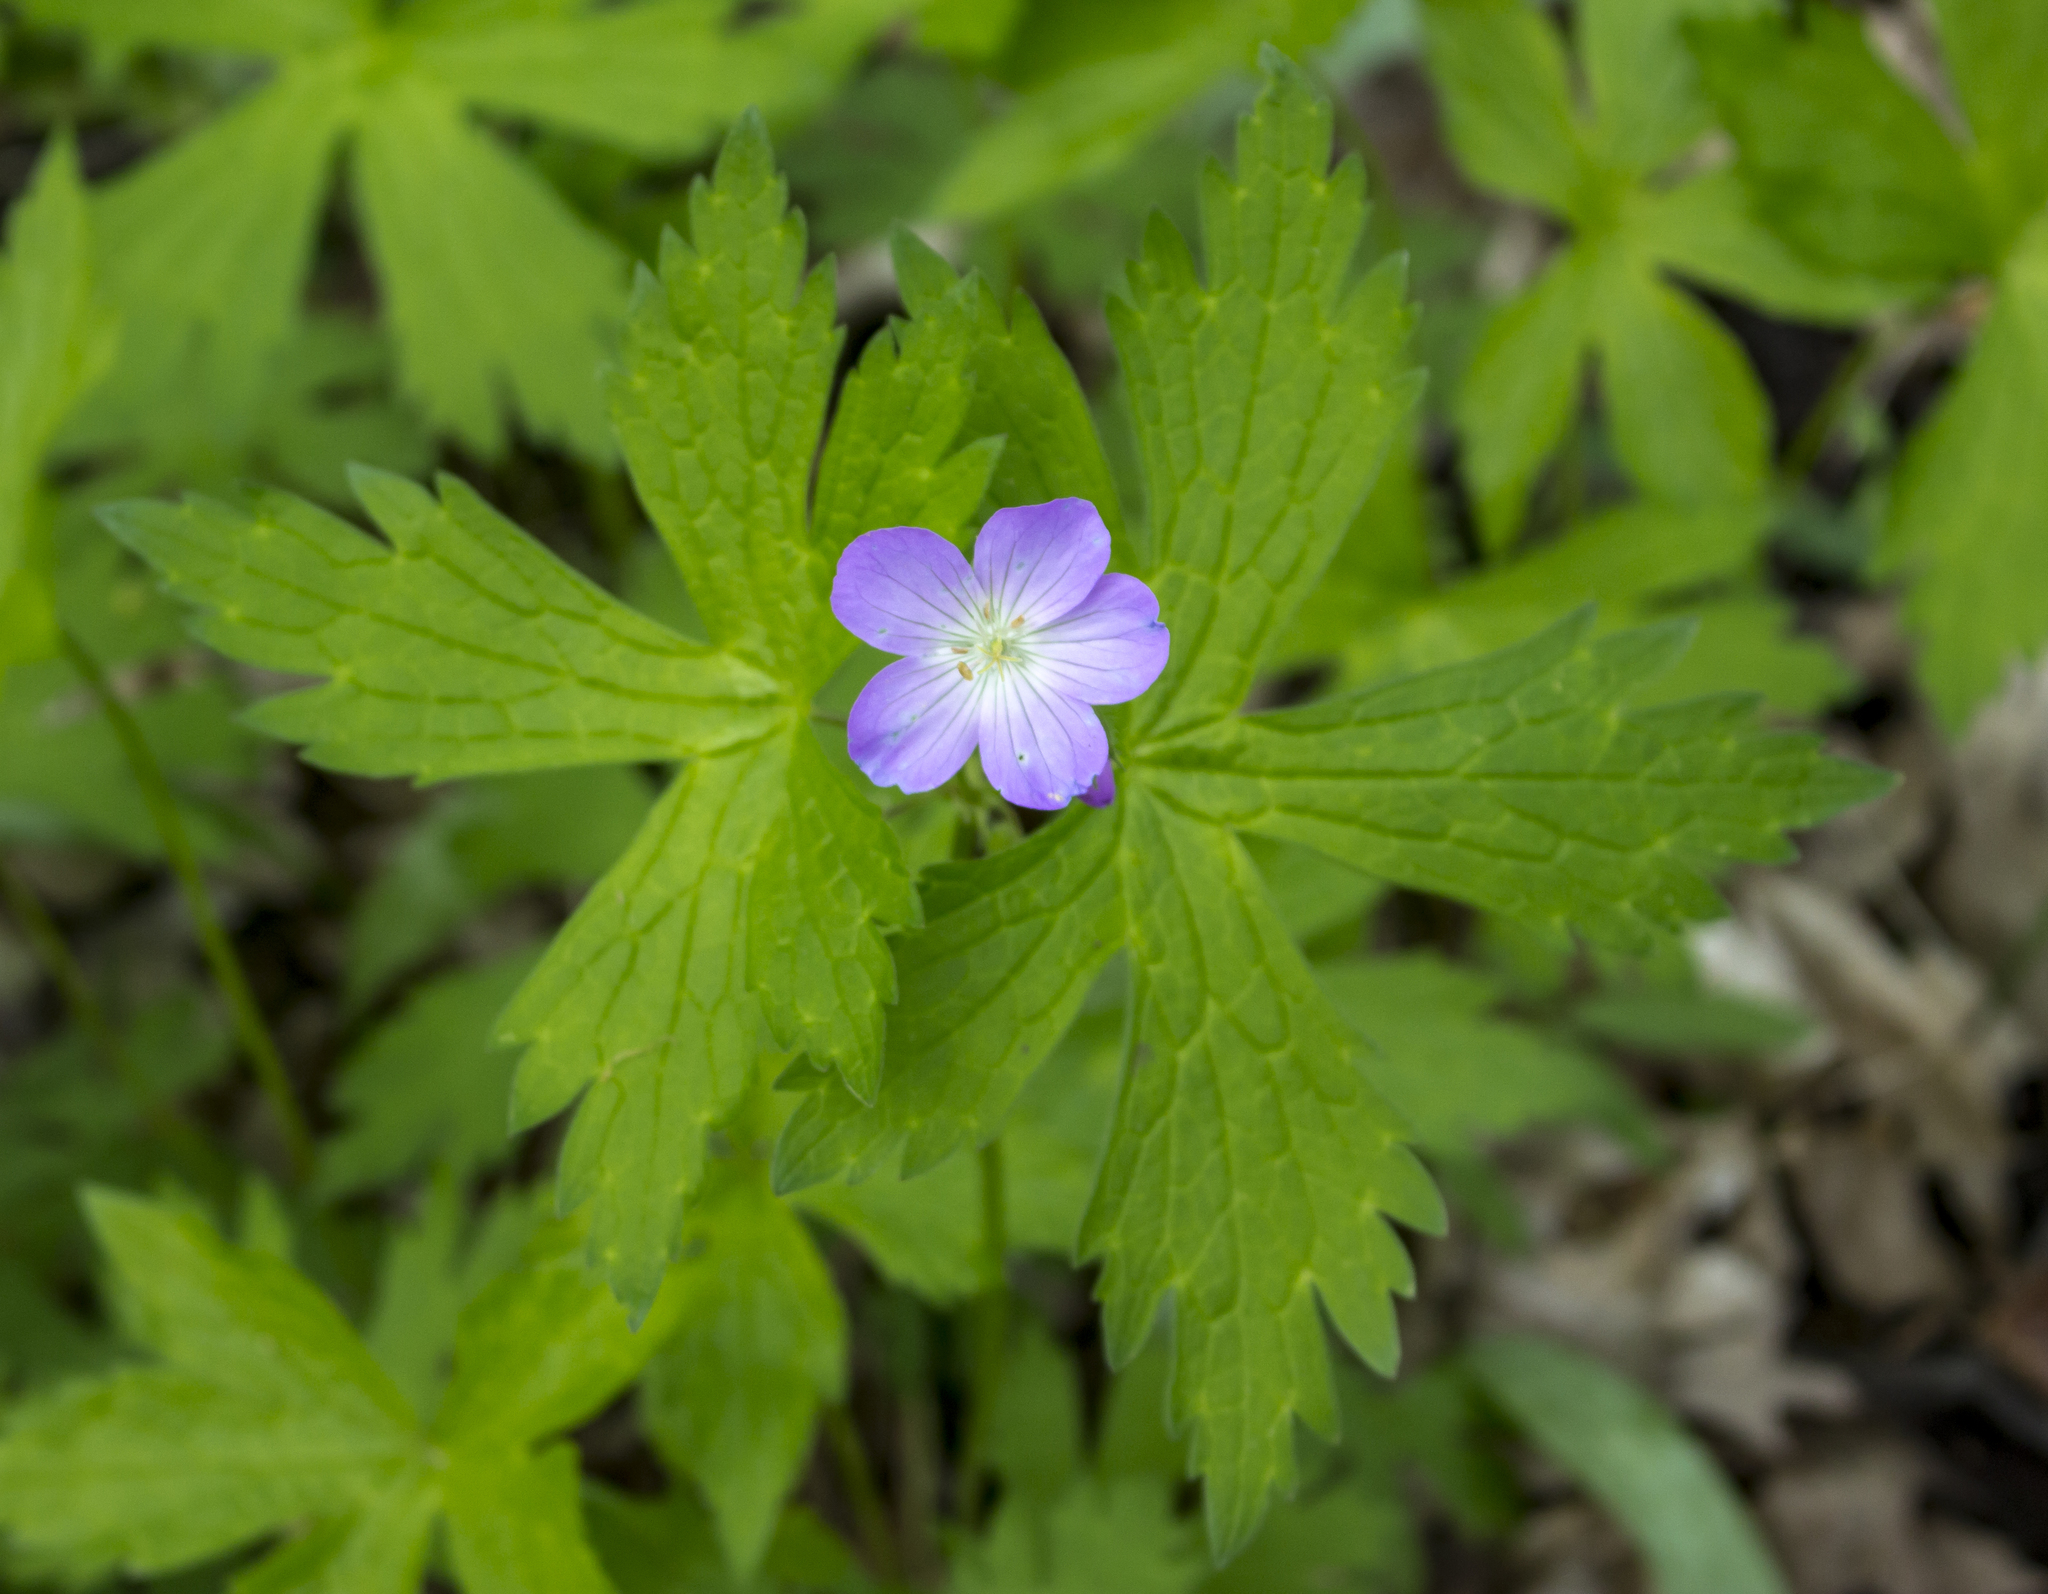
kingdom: Plantae
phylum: Tracheophyta
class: Magnoliopsida
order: Geraniales
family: Geraniaceae
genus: Geranium
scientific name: Geranium maculatum
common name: Spotted geranium
